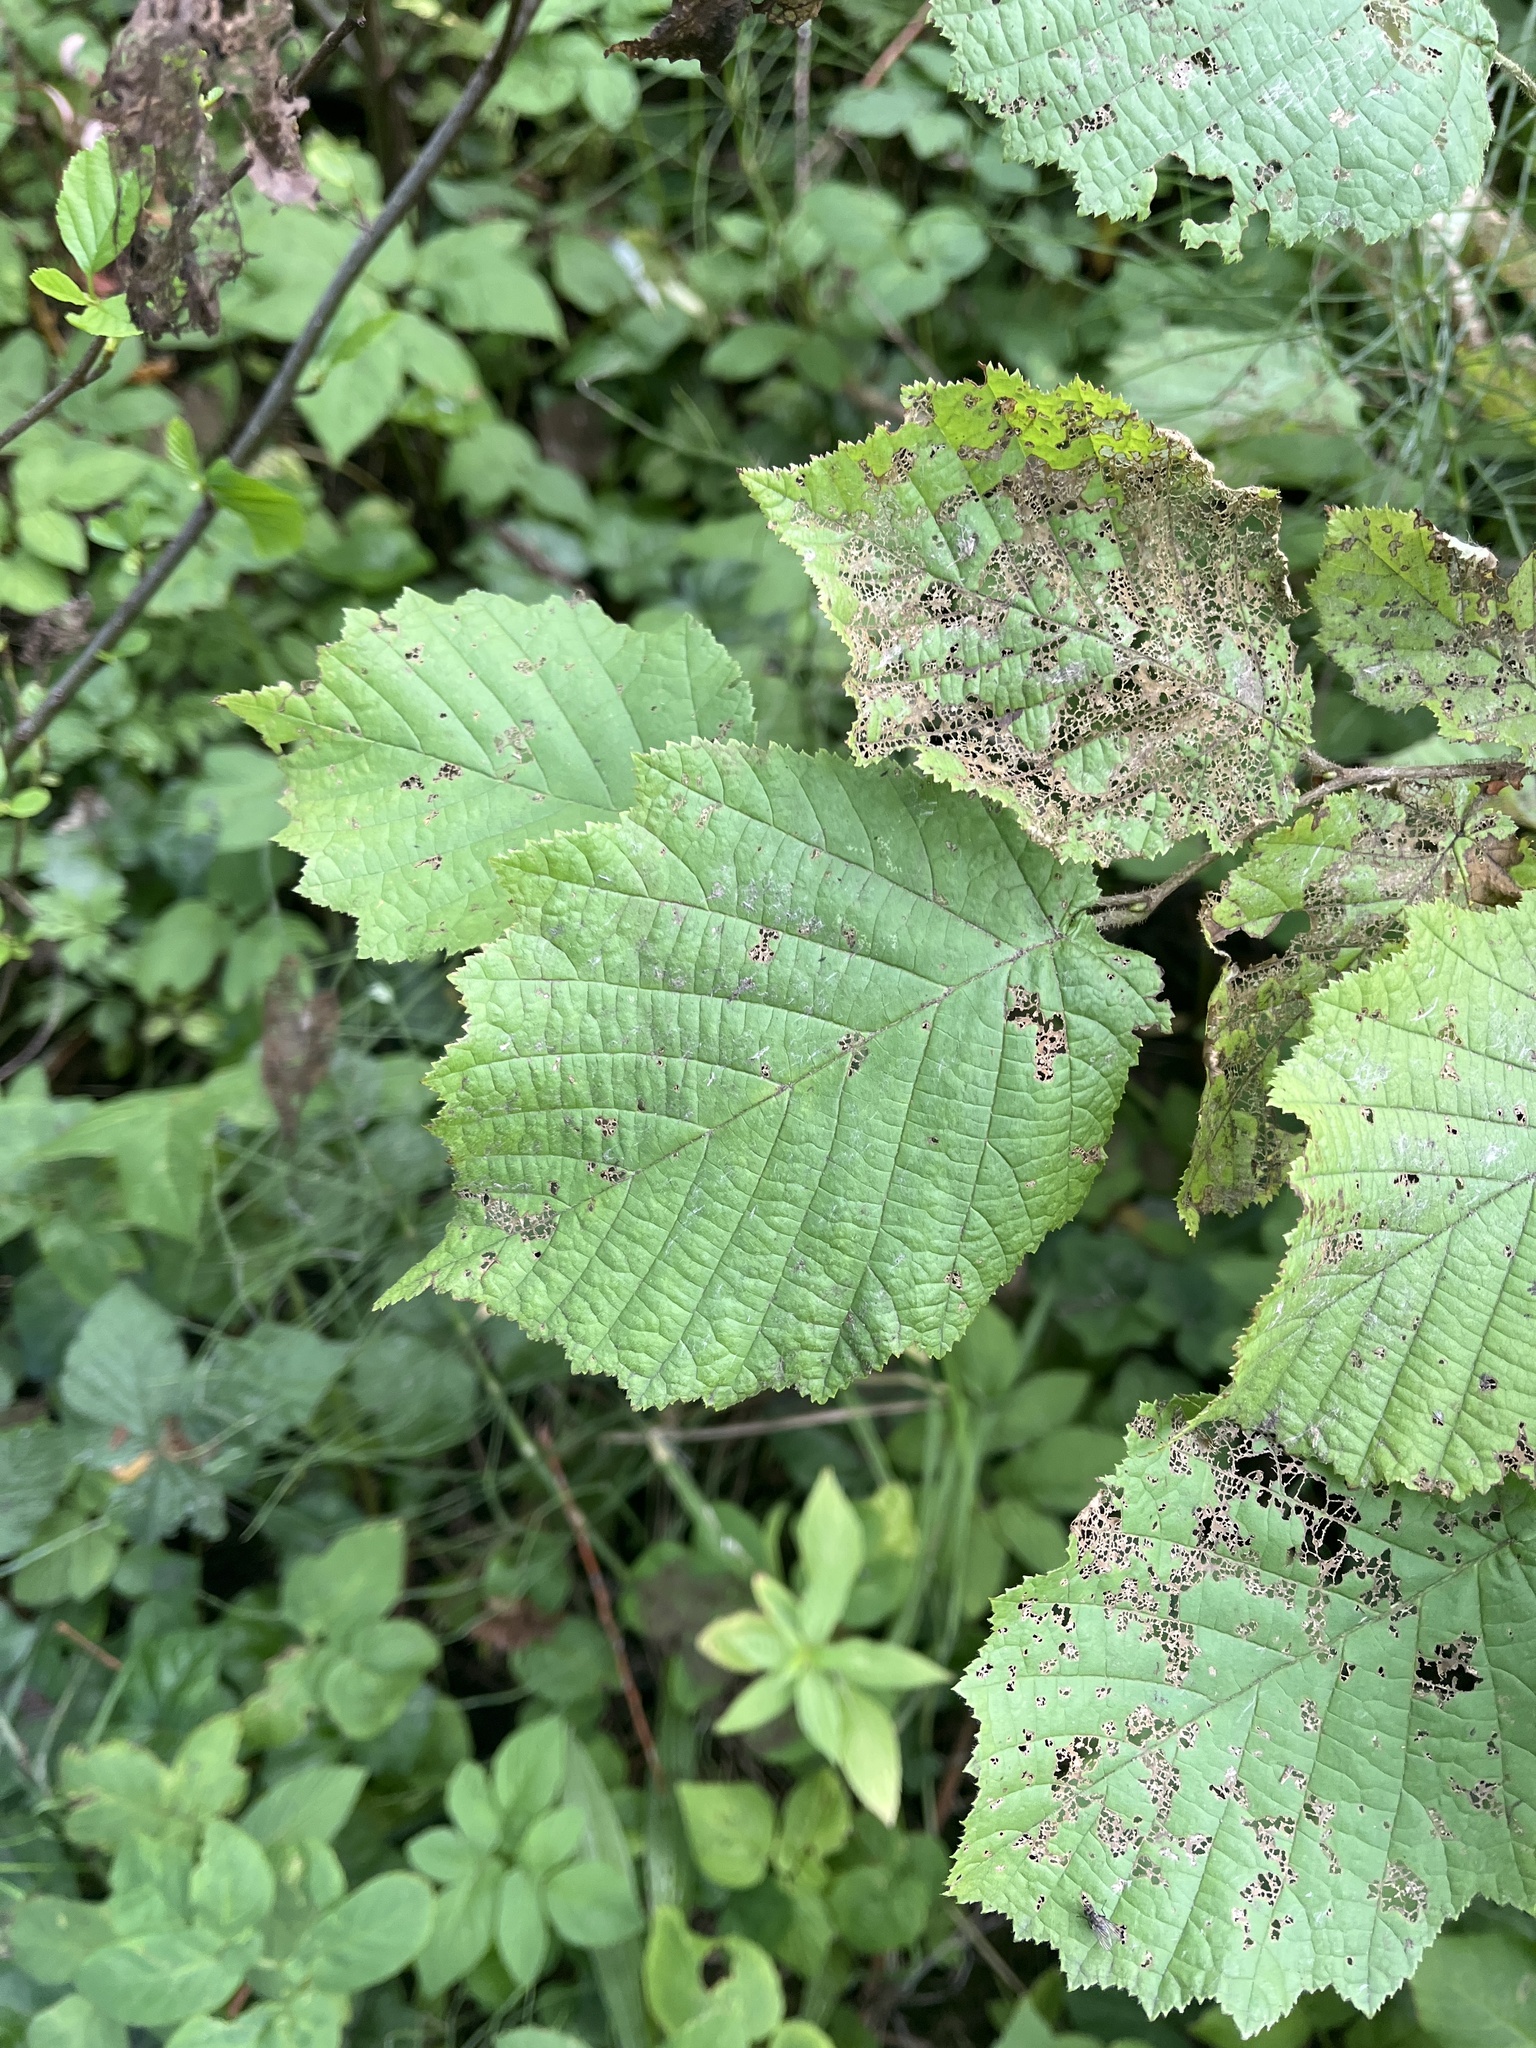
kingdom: Plantae
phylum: Tracheophyta
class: Magnoliopsida
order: Fagales
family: Betulaceae
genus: Corylus
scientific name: Corylus avellana
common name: European hazel
